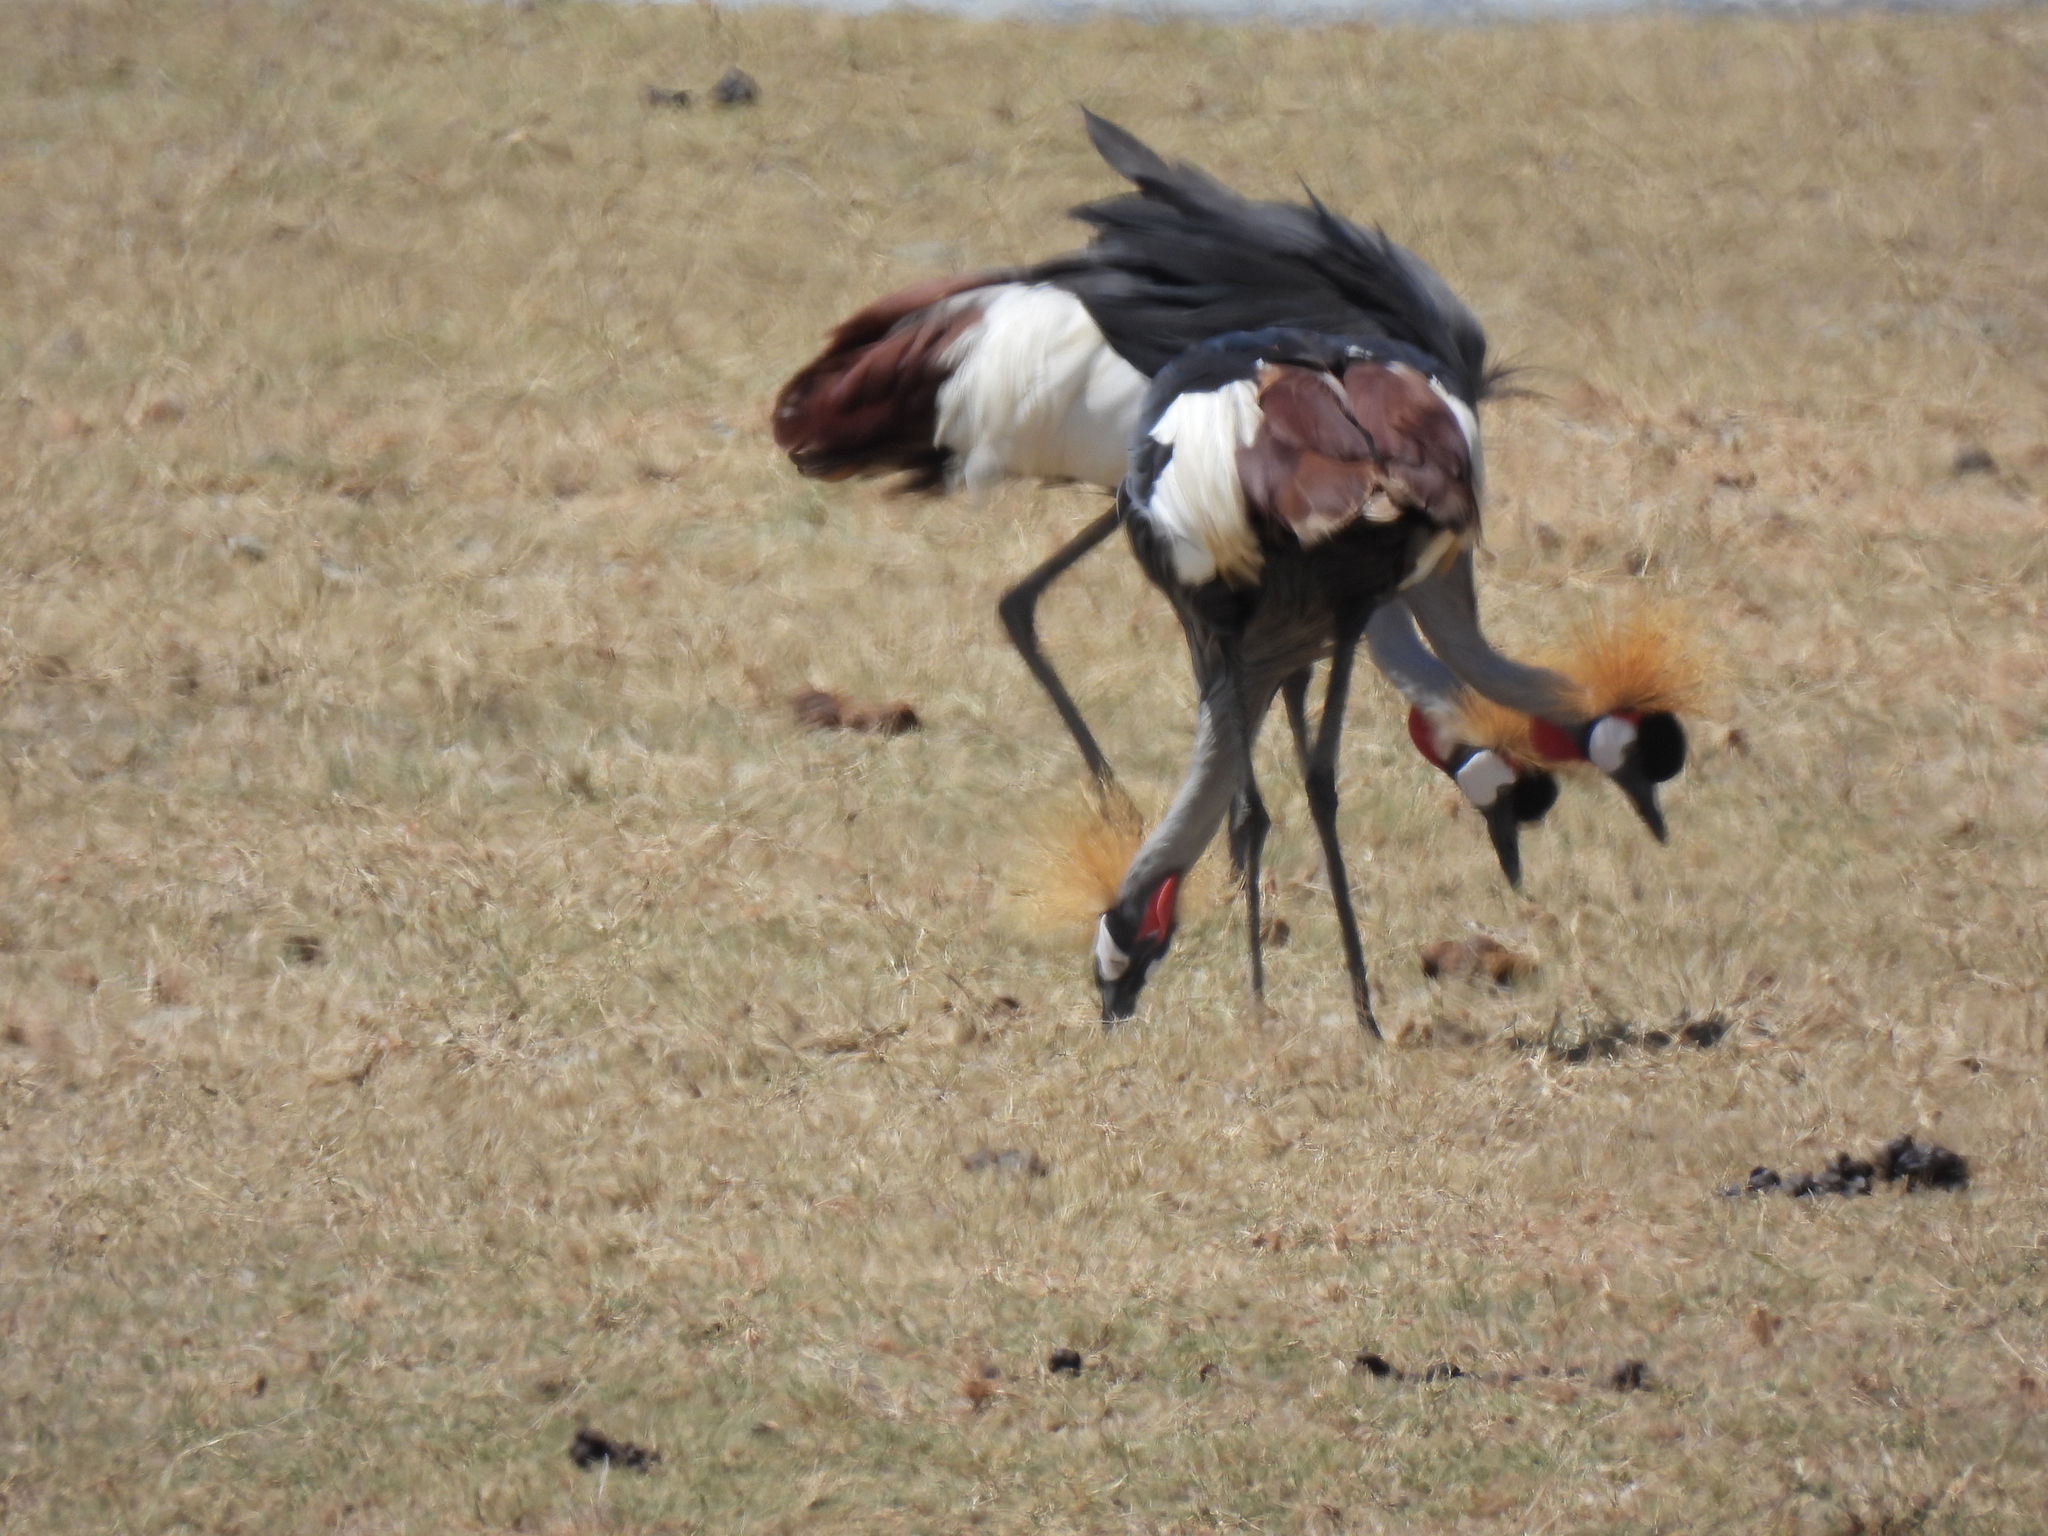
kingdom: Animalia
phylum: Chordata
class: Aves
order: Gruiformes
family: Gruidae
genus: Balearica
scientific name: Balearica regulorum
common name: Grey crowned crane
